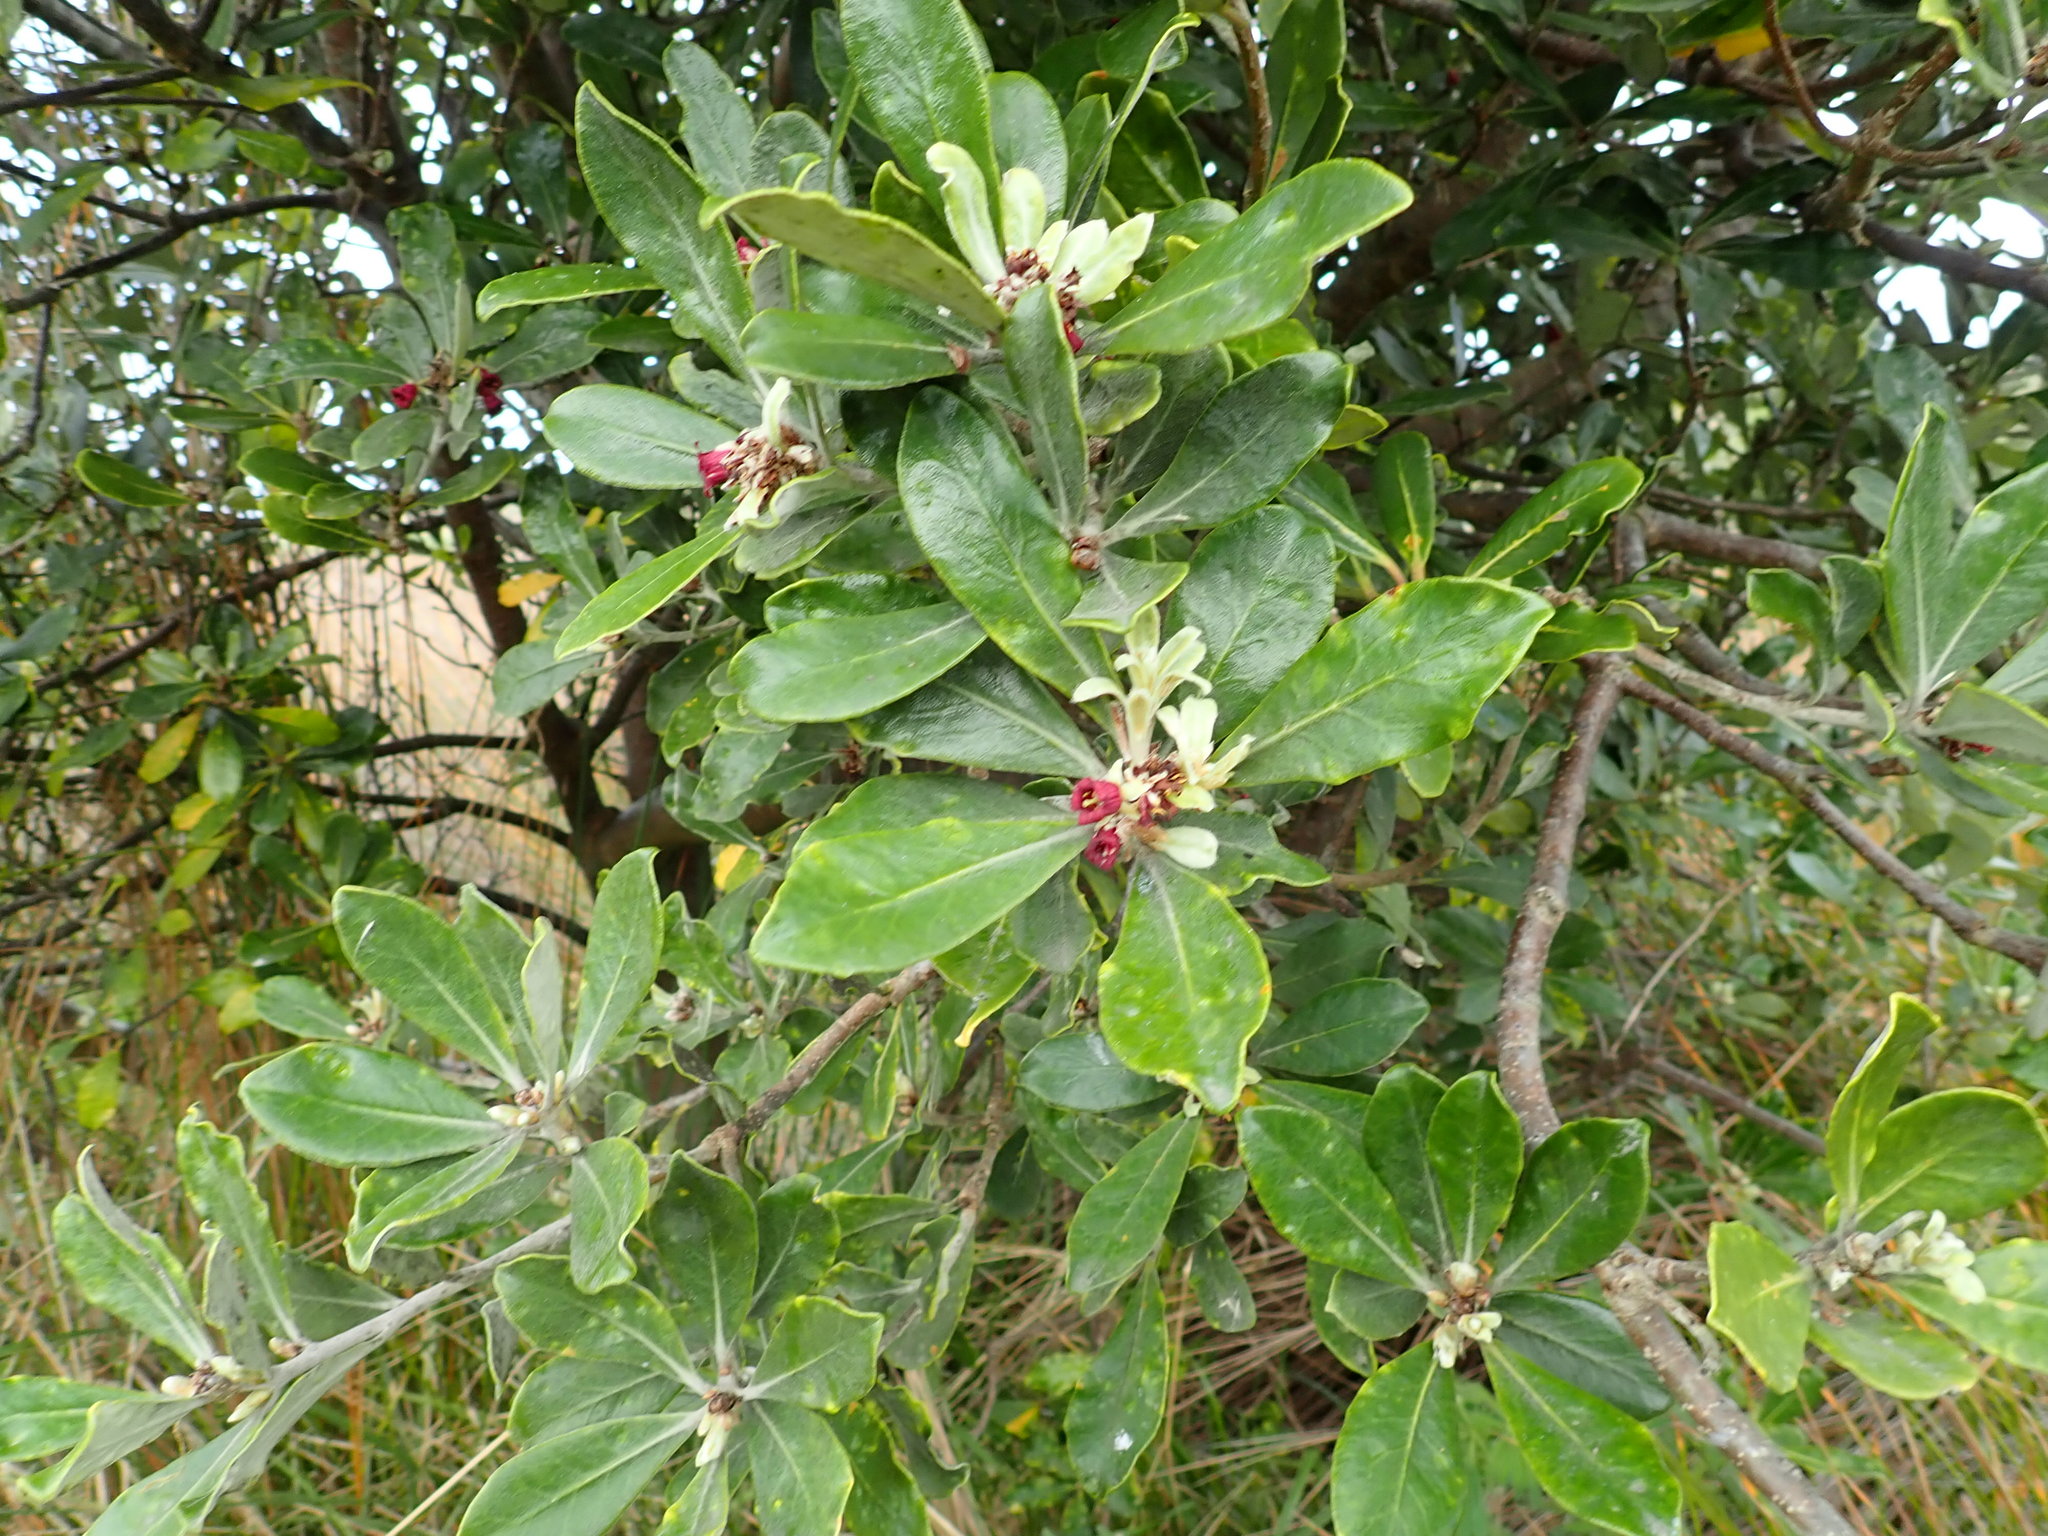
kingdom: Plantae
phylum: Tracheophyta
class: Magnoliopsida
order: Apiales
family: Pittosporaceae
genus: Pittosporum
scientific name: Pittosporum crassifolium
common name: Karo
